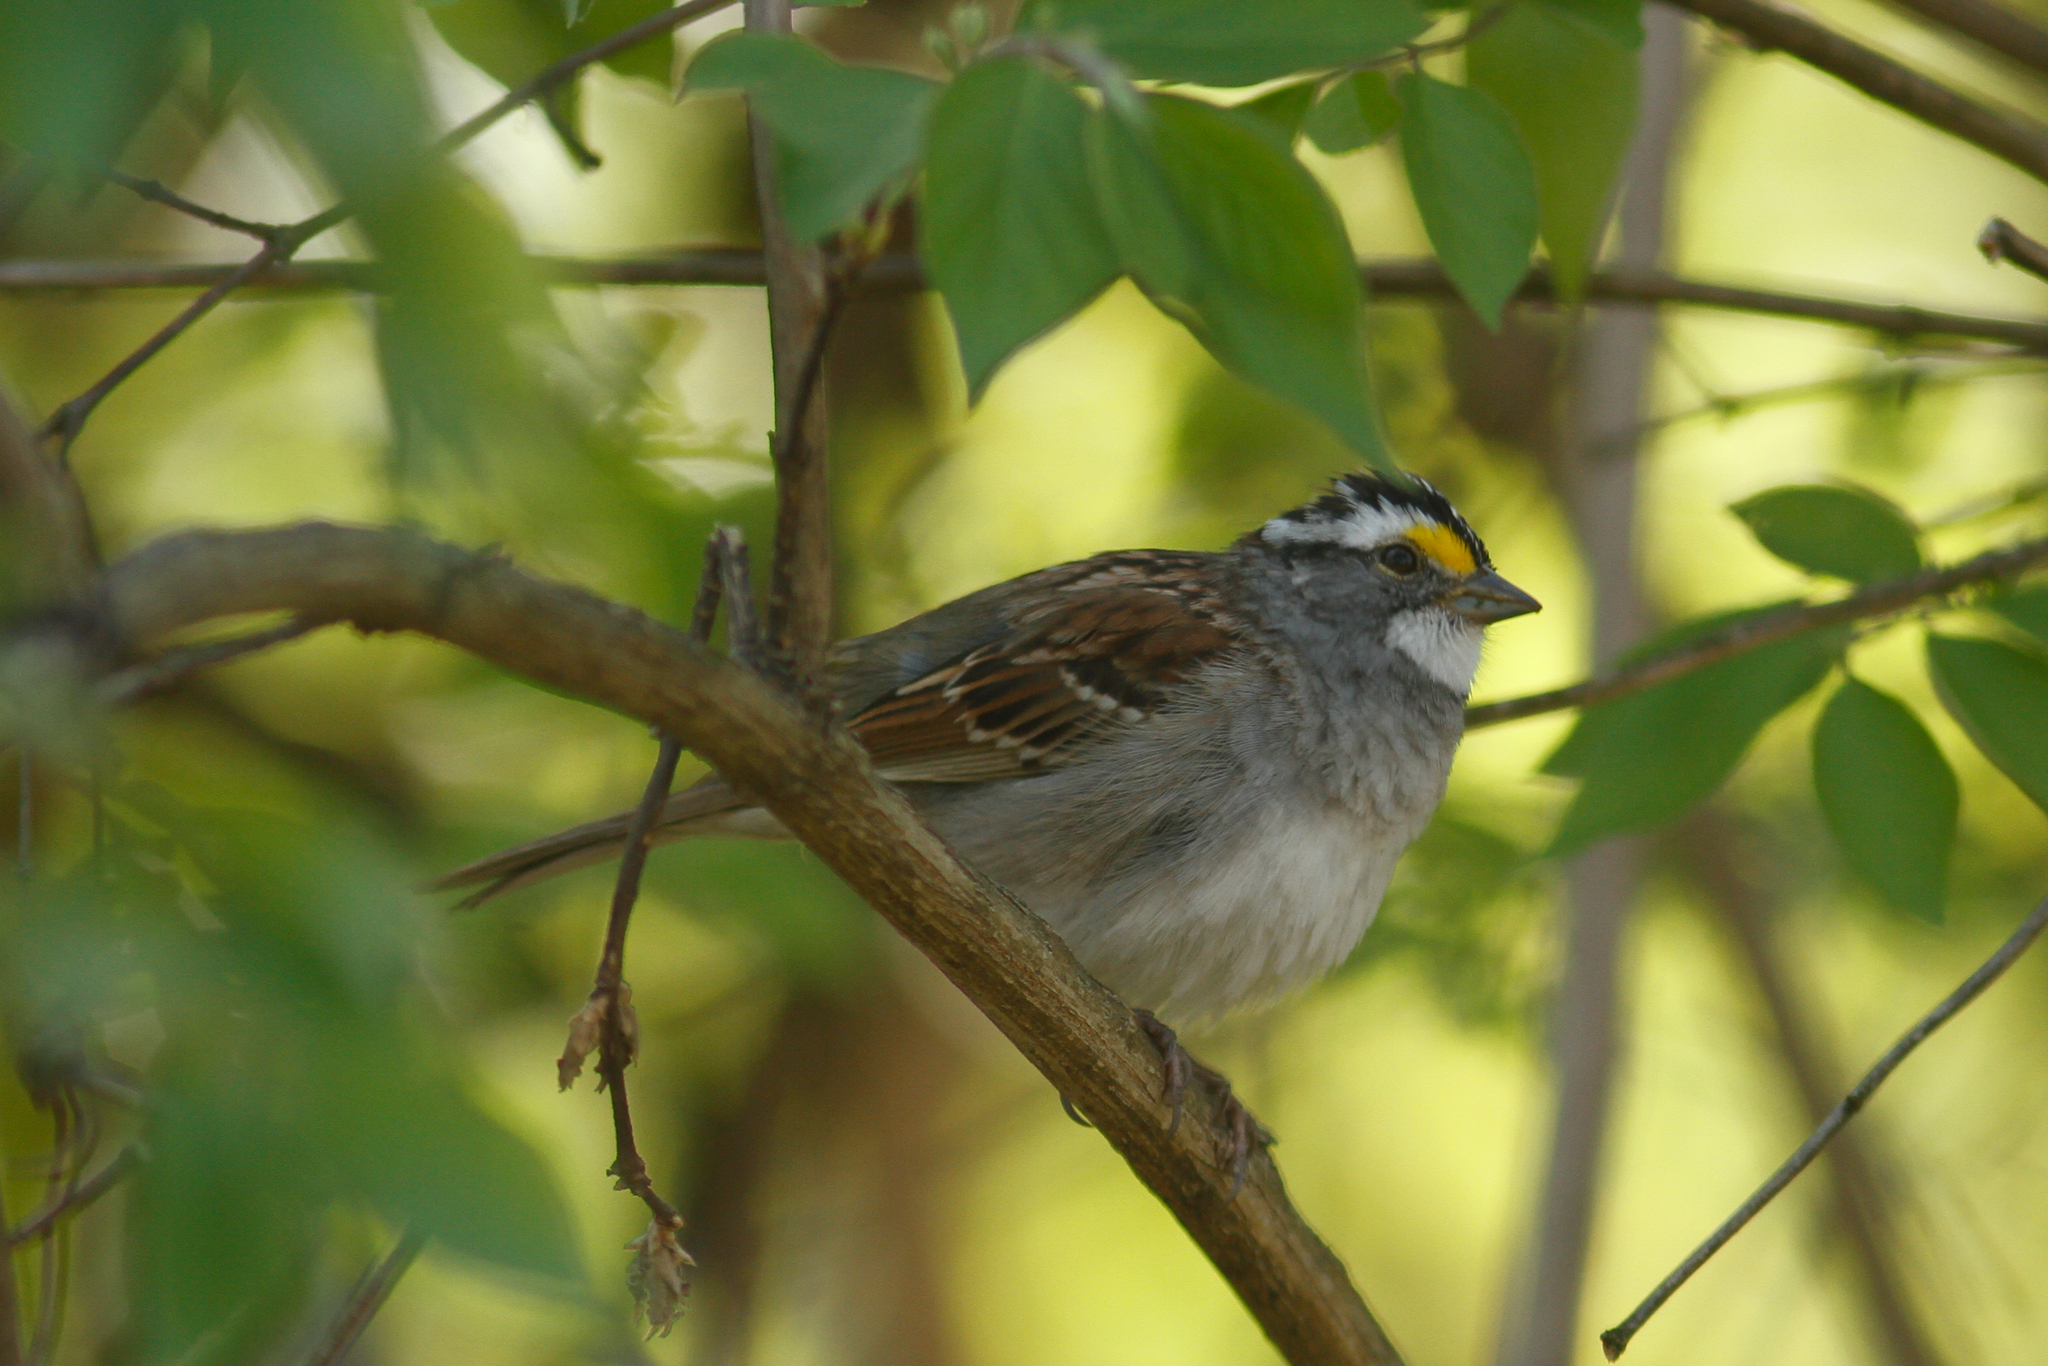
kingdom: Animalia
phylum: Chordata
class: Aves
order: Passeriformes
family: Passerellidae
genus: Zonotrichia
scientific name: Zonotrichia albicollis
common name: White-throated sparrow
